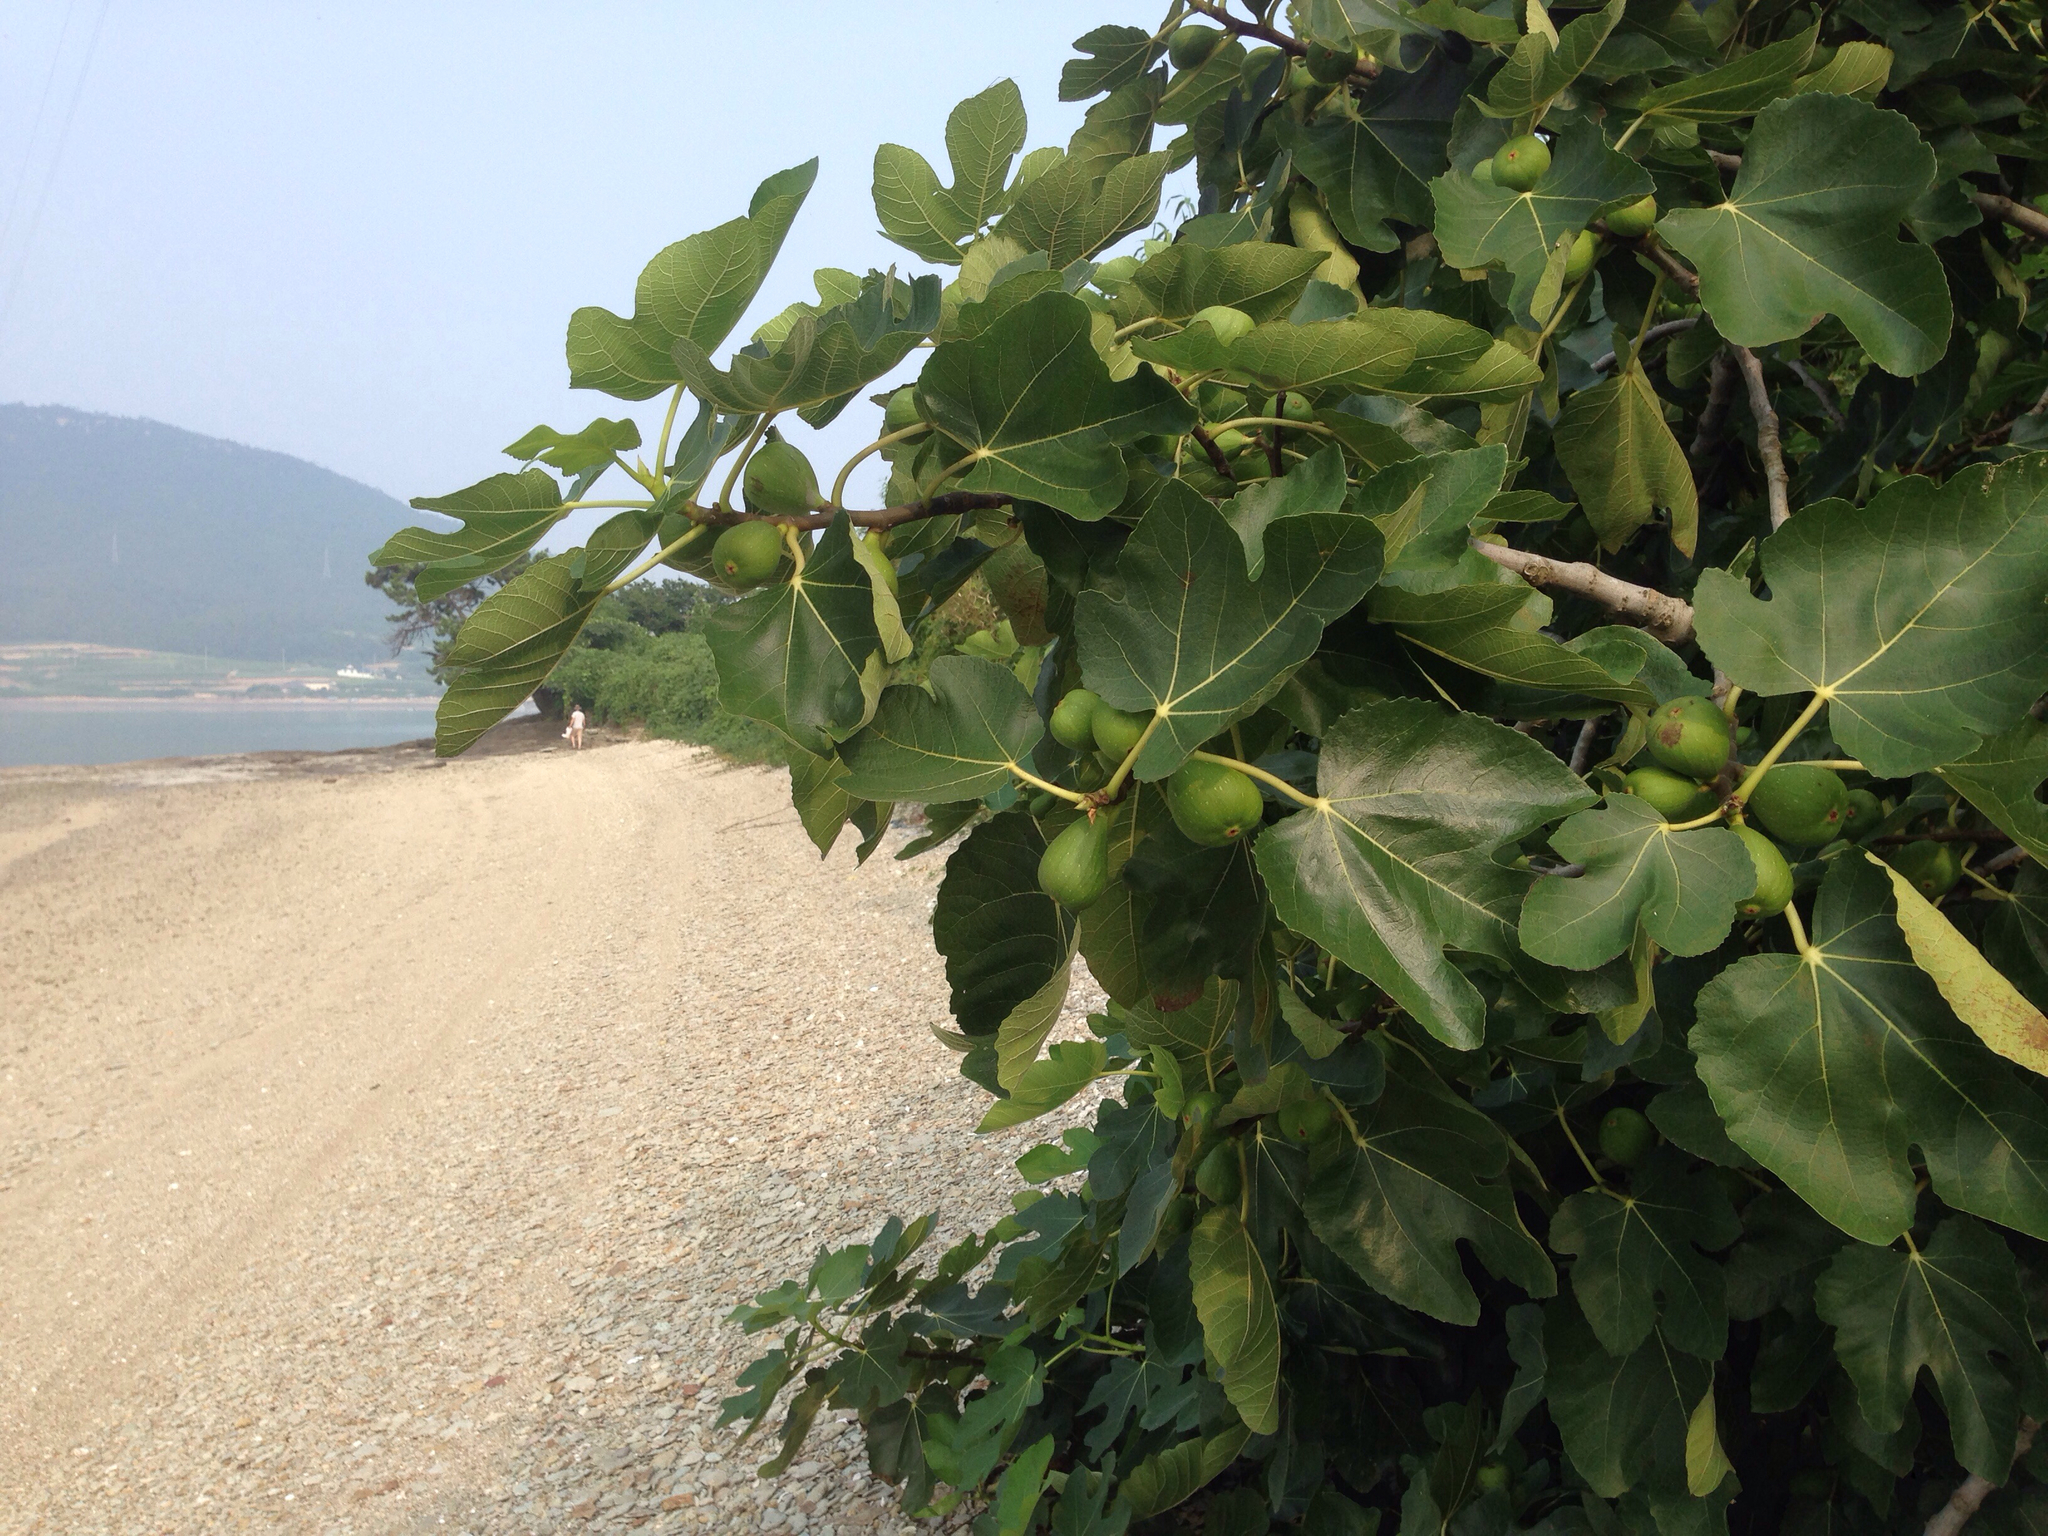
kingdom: Plantae
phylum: Tracheophyta
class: Magnoliopsida
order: Rosales
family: Moraceae
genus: Ficus
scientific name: Ficus carica
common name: Fig
